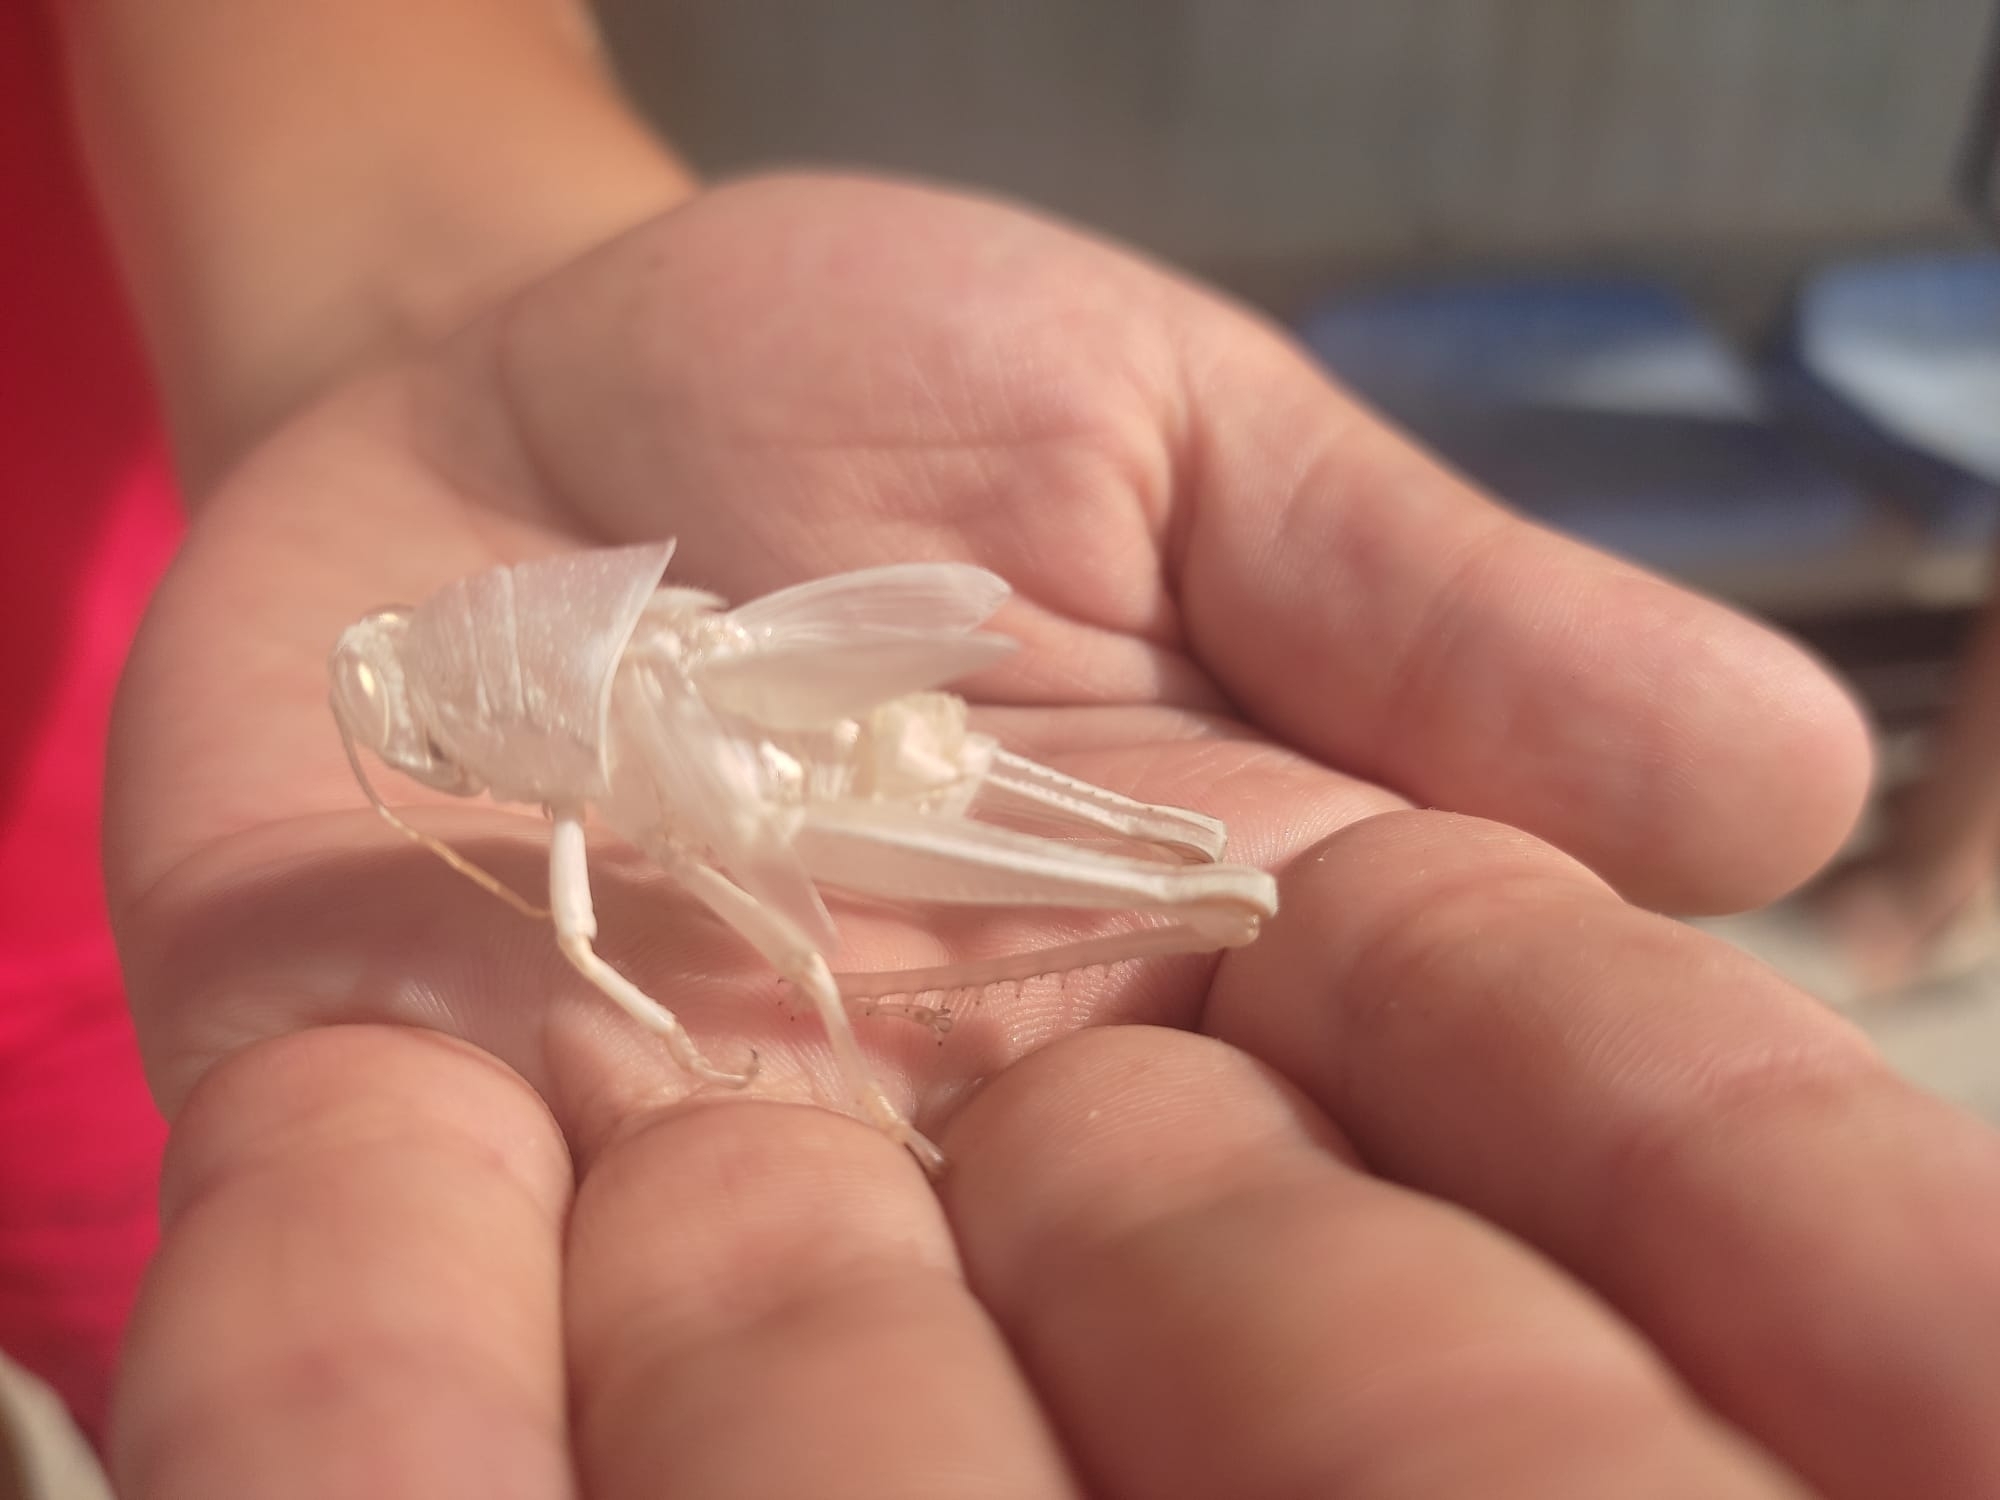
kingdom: Animalia
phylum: Arthropoda
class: Insecta
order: Orthoptera
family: Acrididae
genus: Anacridium
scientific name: Anacridium aegyptium
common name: Egyptian grasshopper
